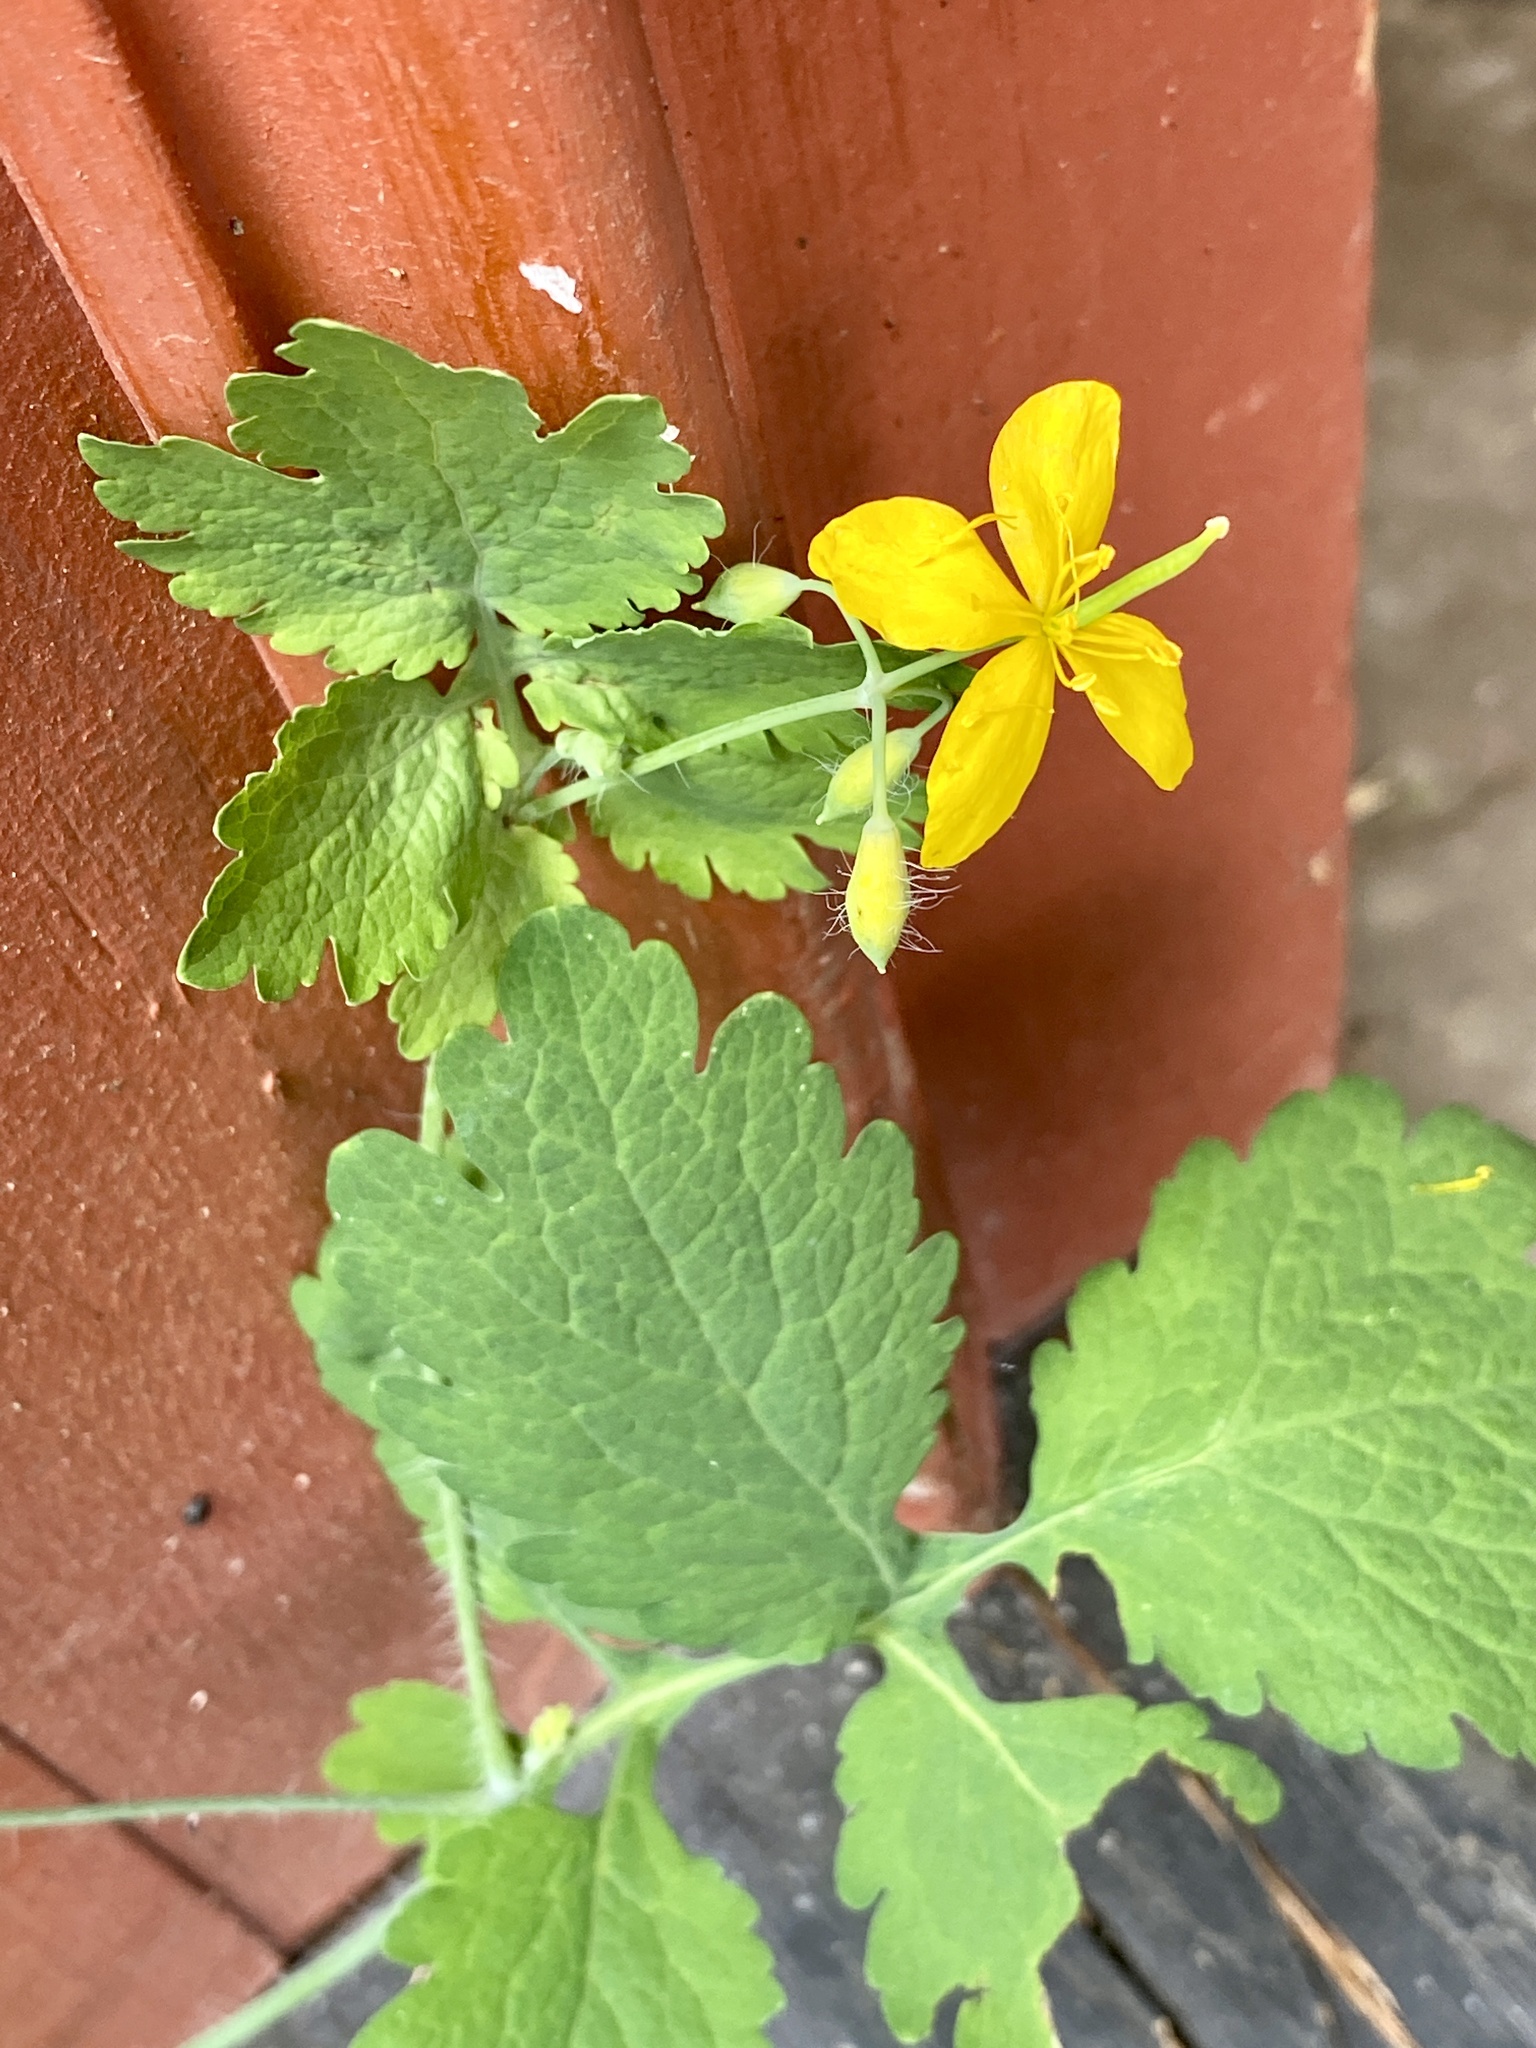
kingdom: Plantae
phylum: Tracheophyta
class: Magnoliopsida
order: Ranunculales
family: Papaveraceae
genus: Chelidonium
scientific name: Chelidonium majus
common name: Greater celandine
